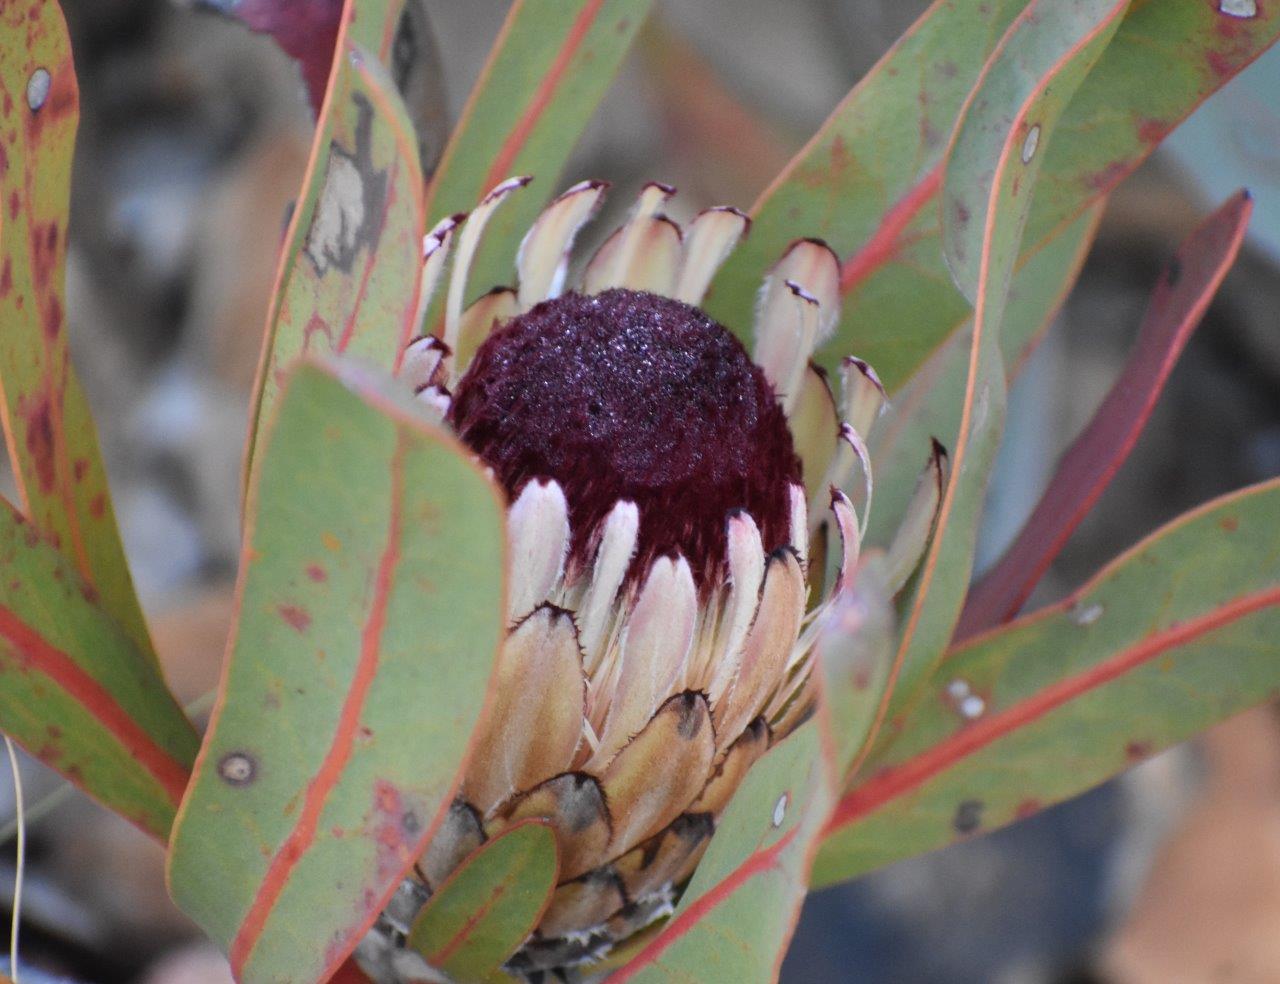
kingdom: Plantae
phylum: Tracheophyta
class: Magnoliopsida
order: Proteales
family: Proteaceae
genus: Protea
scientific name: Protea lorifolia
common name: Strap-leaved protea
